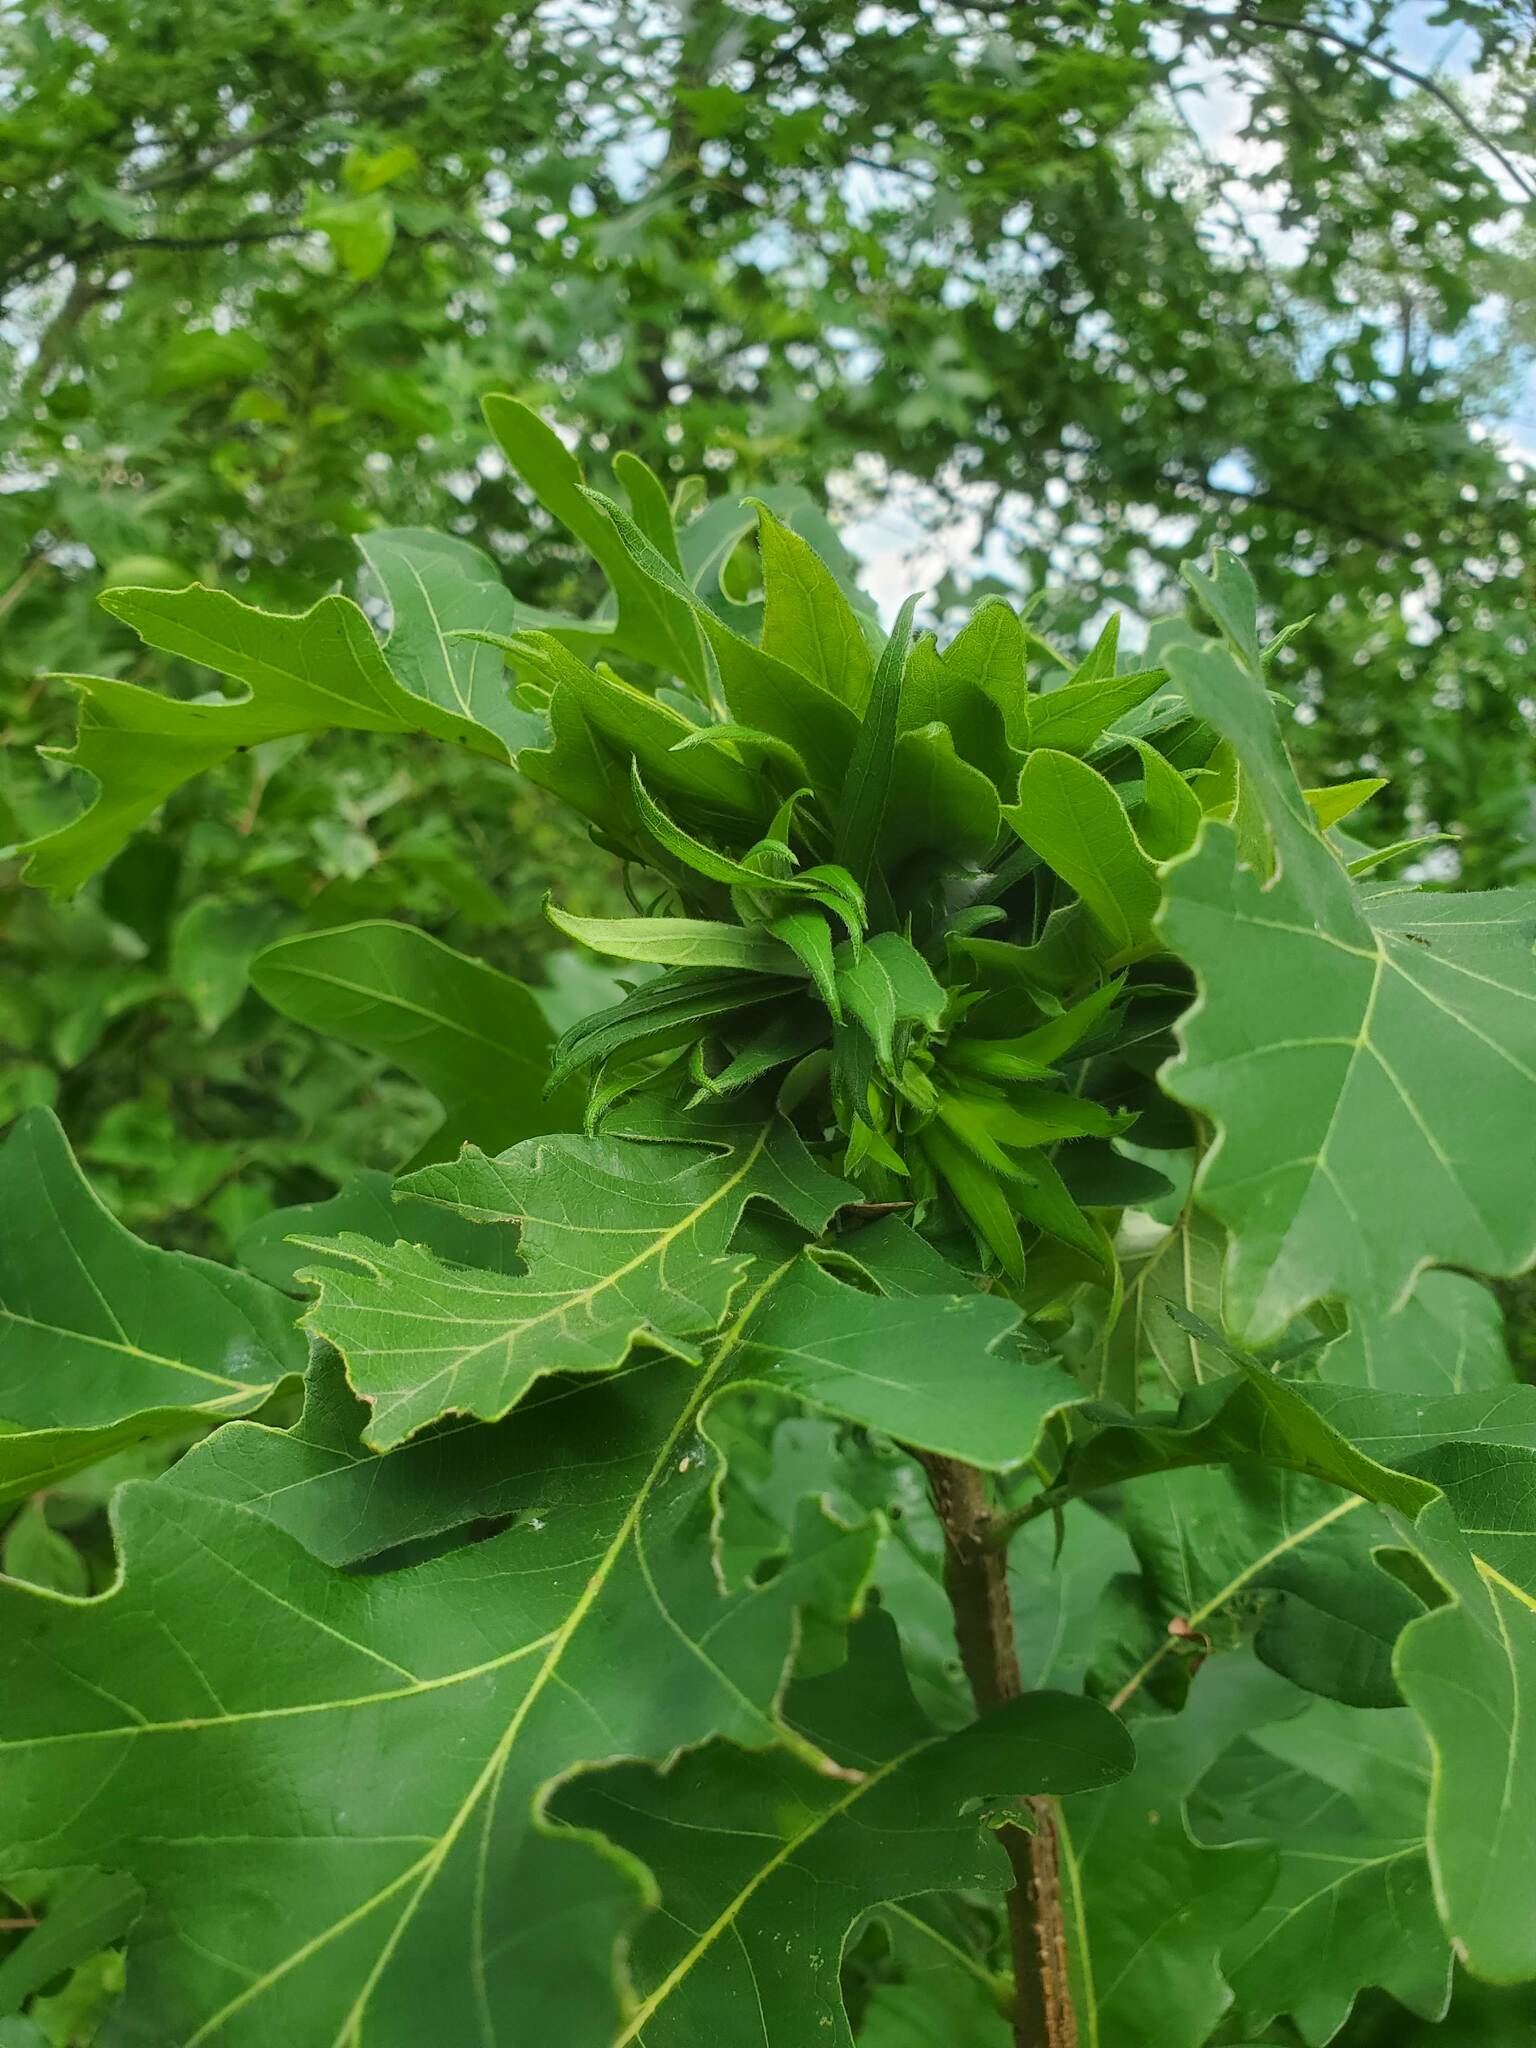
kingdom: Animalia
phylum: Arthropoda
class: Insecta
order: Hymenoptera
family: Cynipidae
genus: Andricus
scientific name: Andricus
